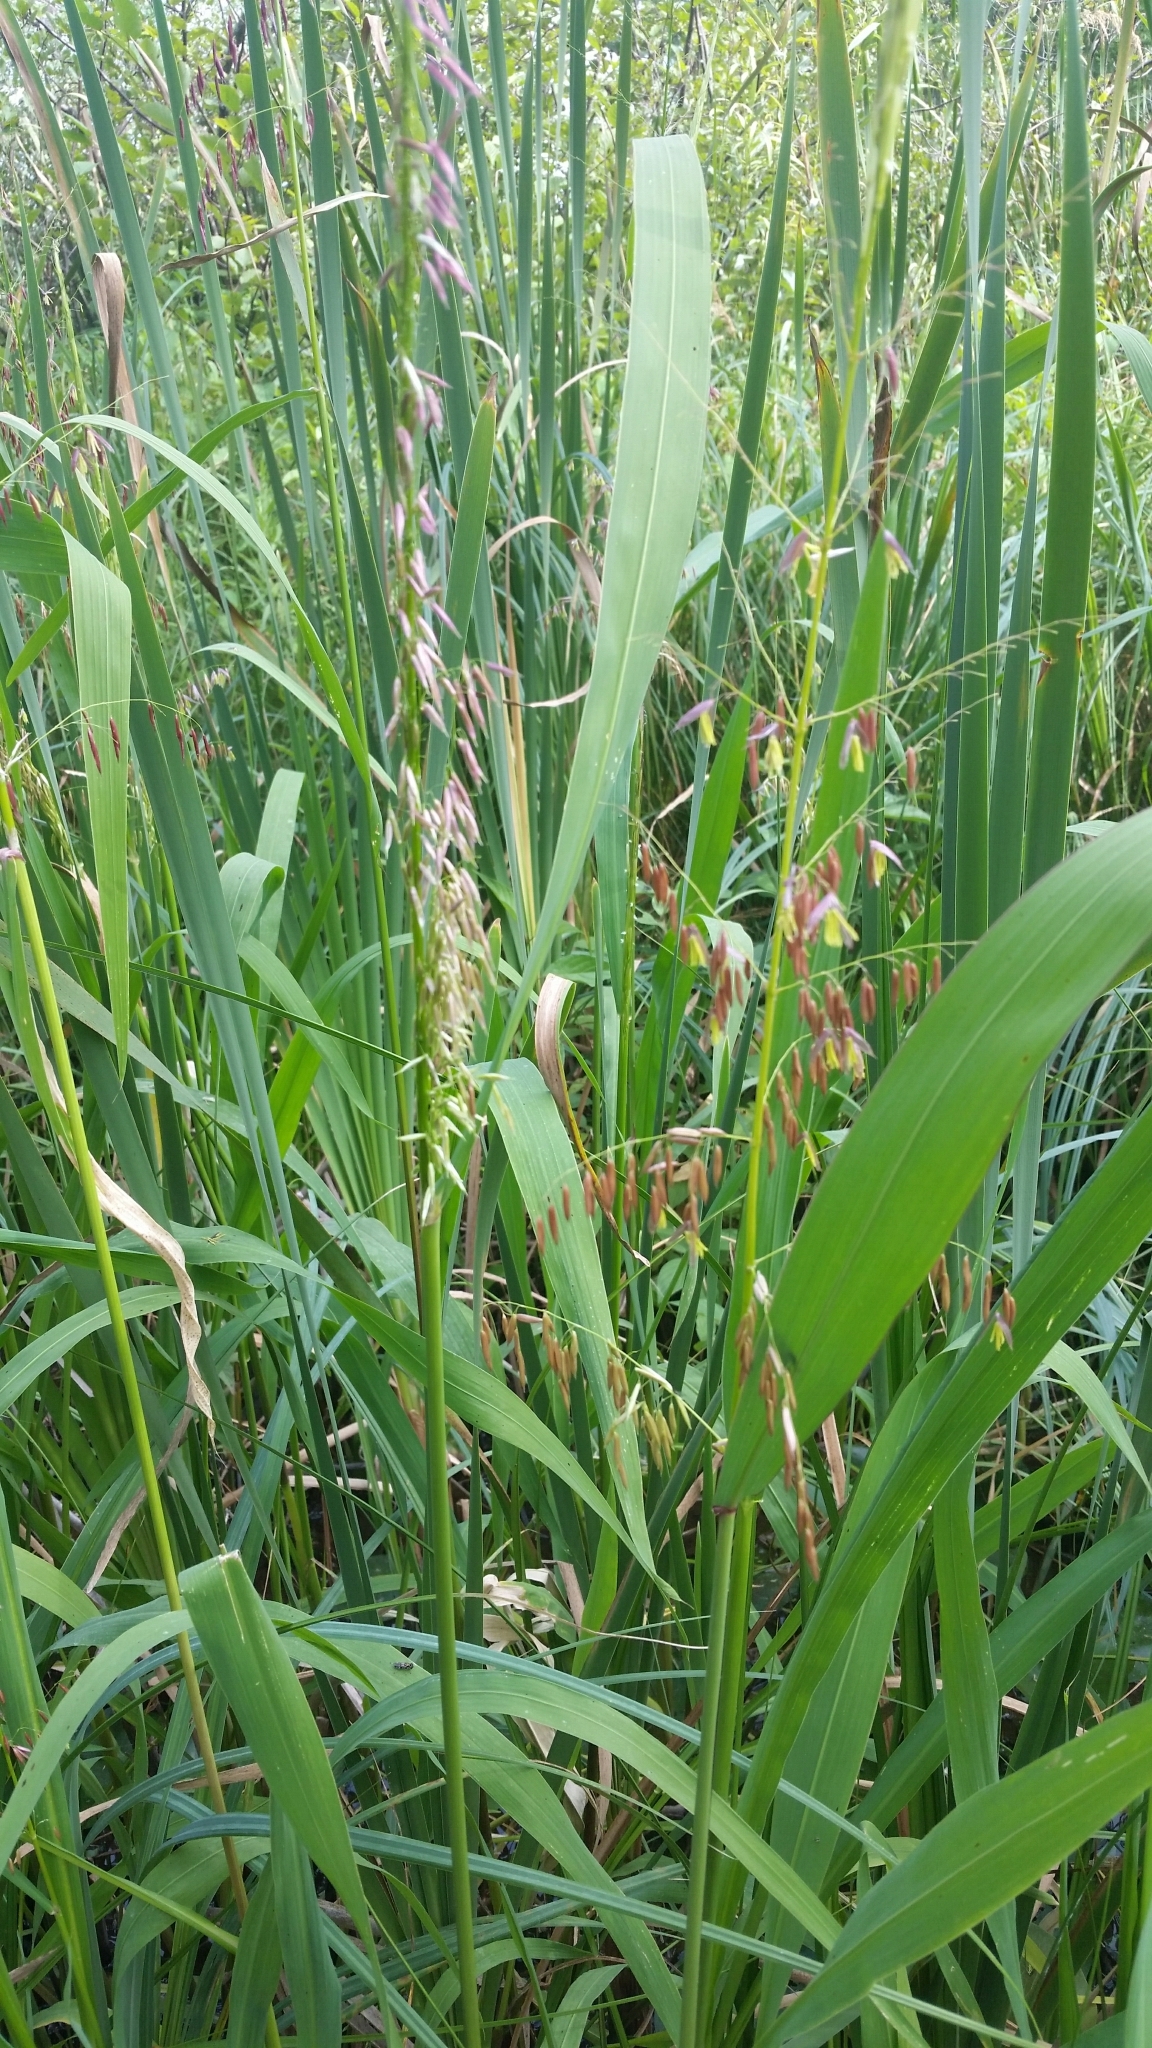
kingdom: Plantae
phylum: Tracheophyta
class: Liliopsida
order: Poales
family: Poaceae
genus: Zizania
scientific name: Zizania palustris
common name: Northern wild rice
